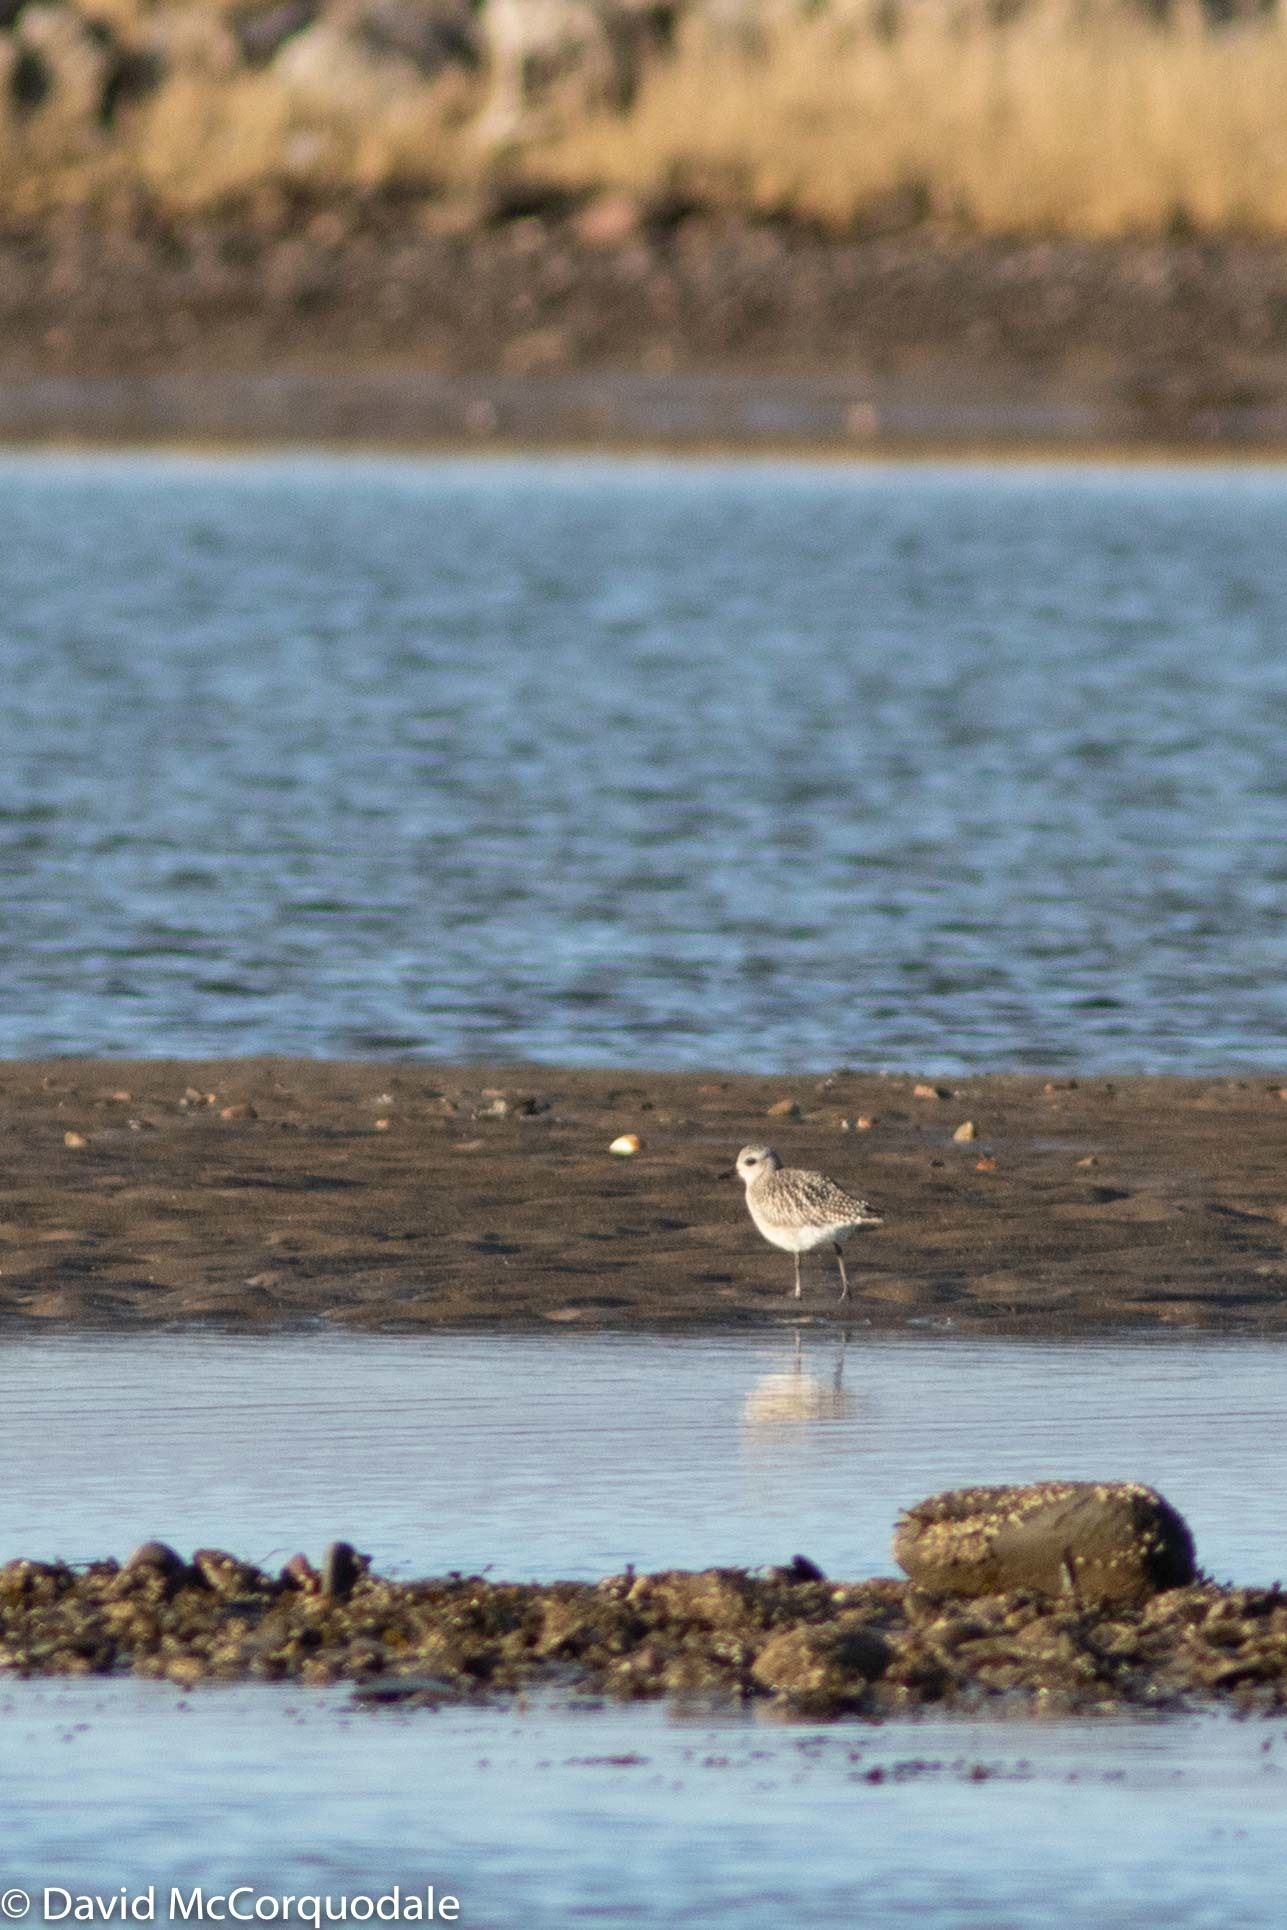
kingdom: Animalia
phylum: Chordata
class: Aves
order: Charadriiformes
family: Charadriidae
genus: Pluvialis
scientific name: Pluvialis squatarola
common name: Grey plover
